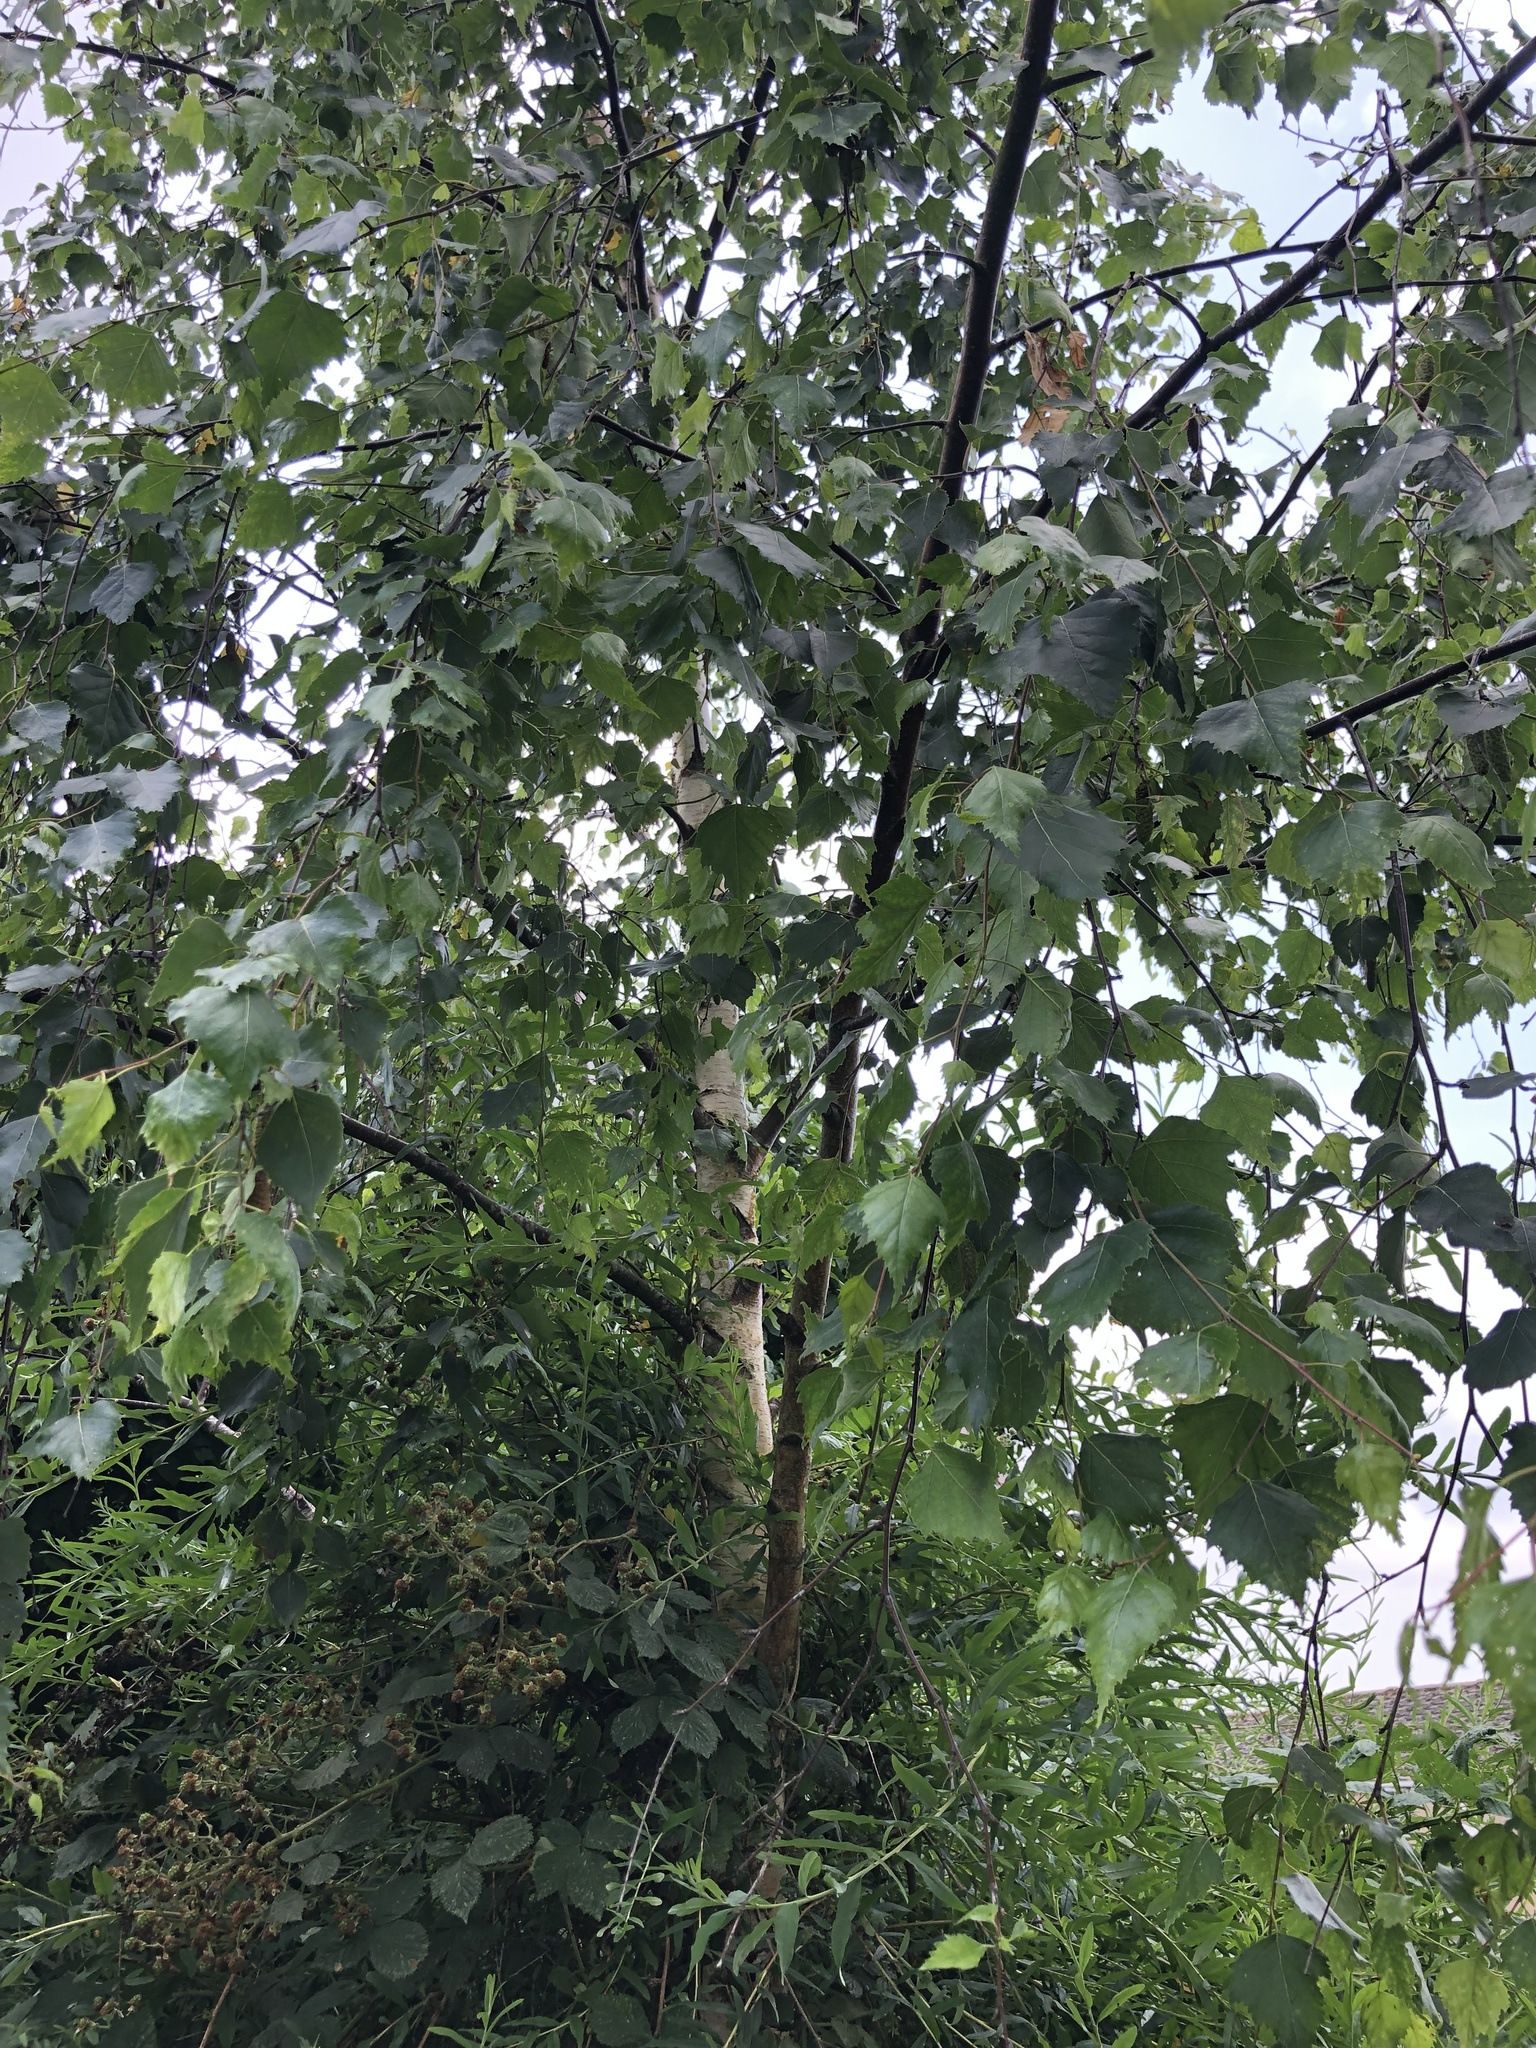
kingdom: Plantae
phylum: Tracheophyta
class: Magnoliopsida
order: Fagales
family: Betulaceae
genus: Betula
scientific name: Betula pendula
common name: Silver birch
